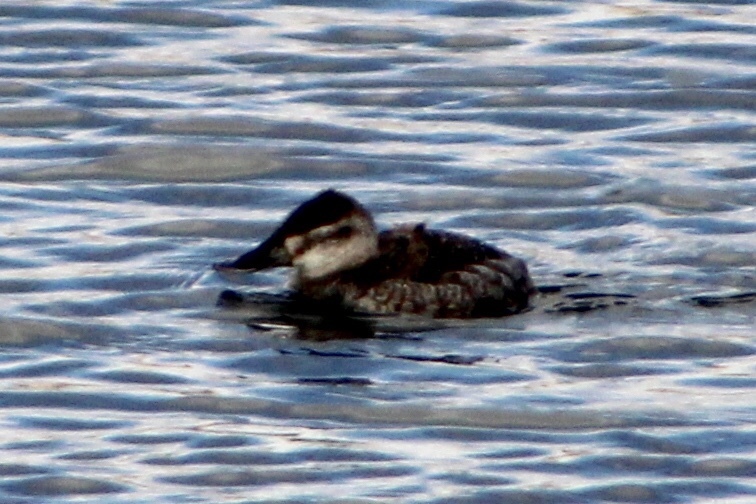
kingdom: Animalia
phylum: Chordata
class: Aves
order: Anseriformes
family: Anatidae
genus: Oxyura
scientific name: Oxyura jamaicensis
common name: Ruddy duck
